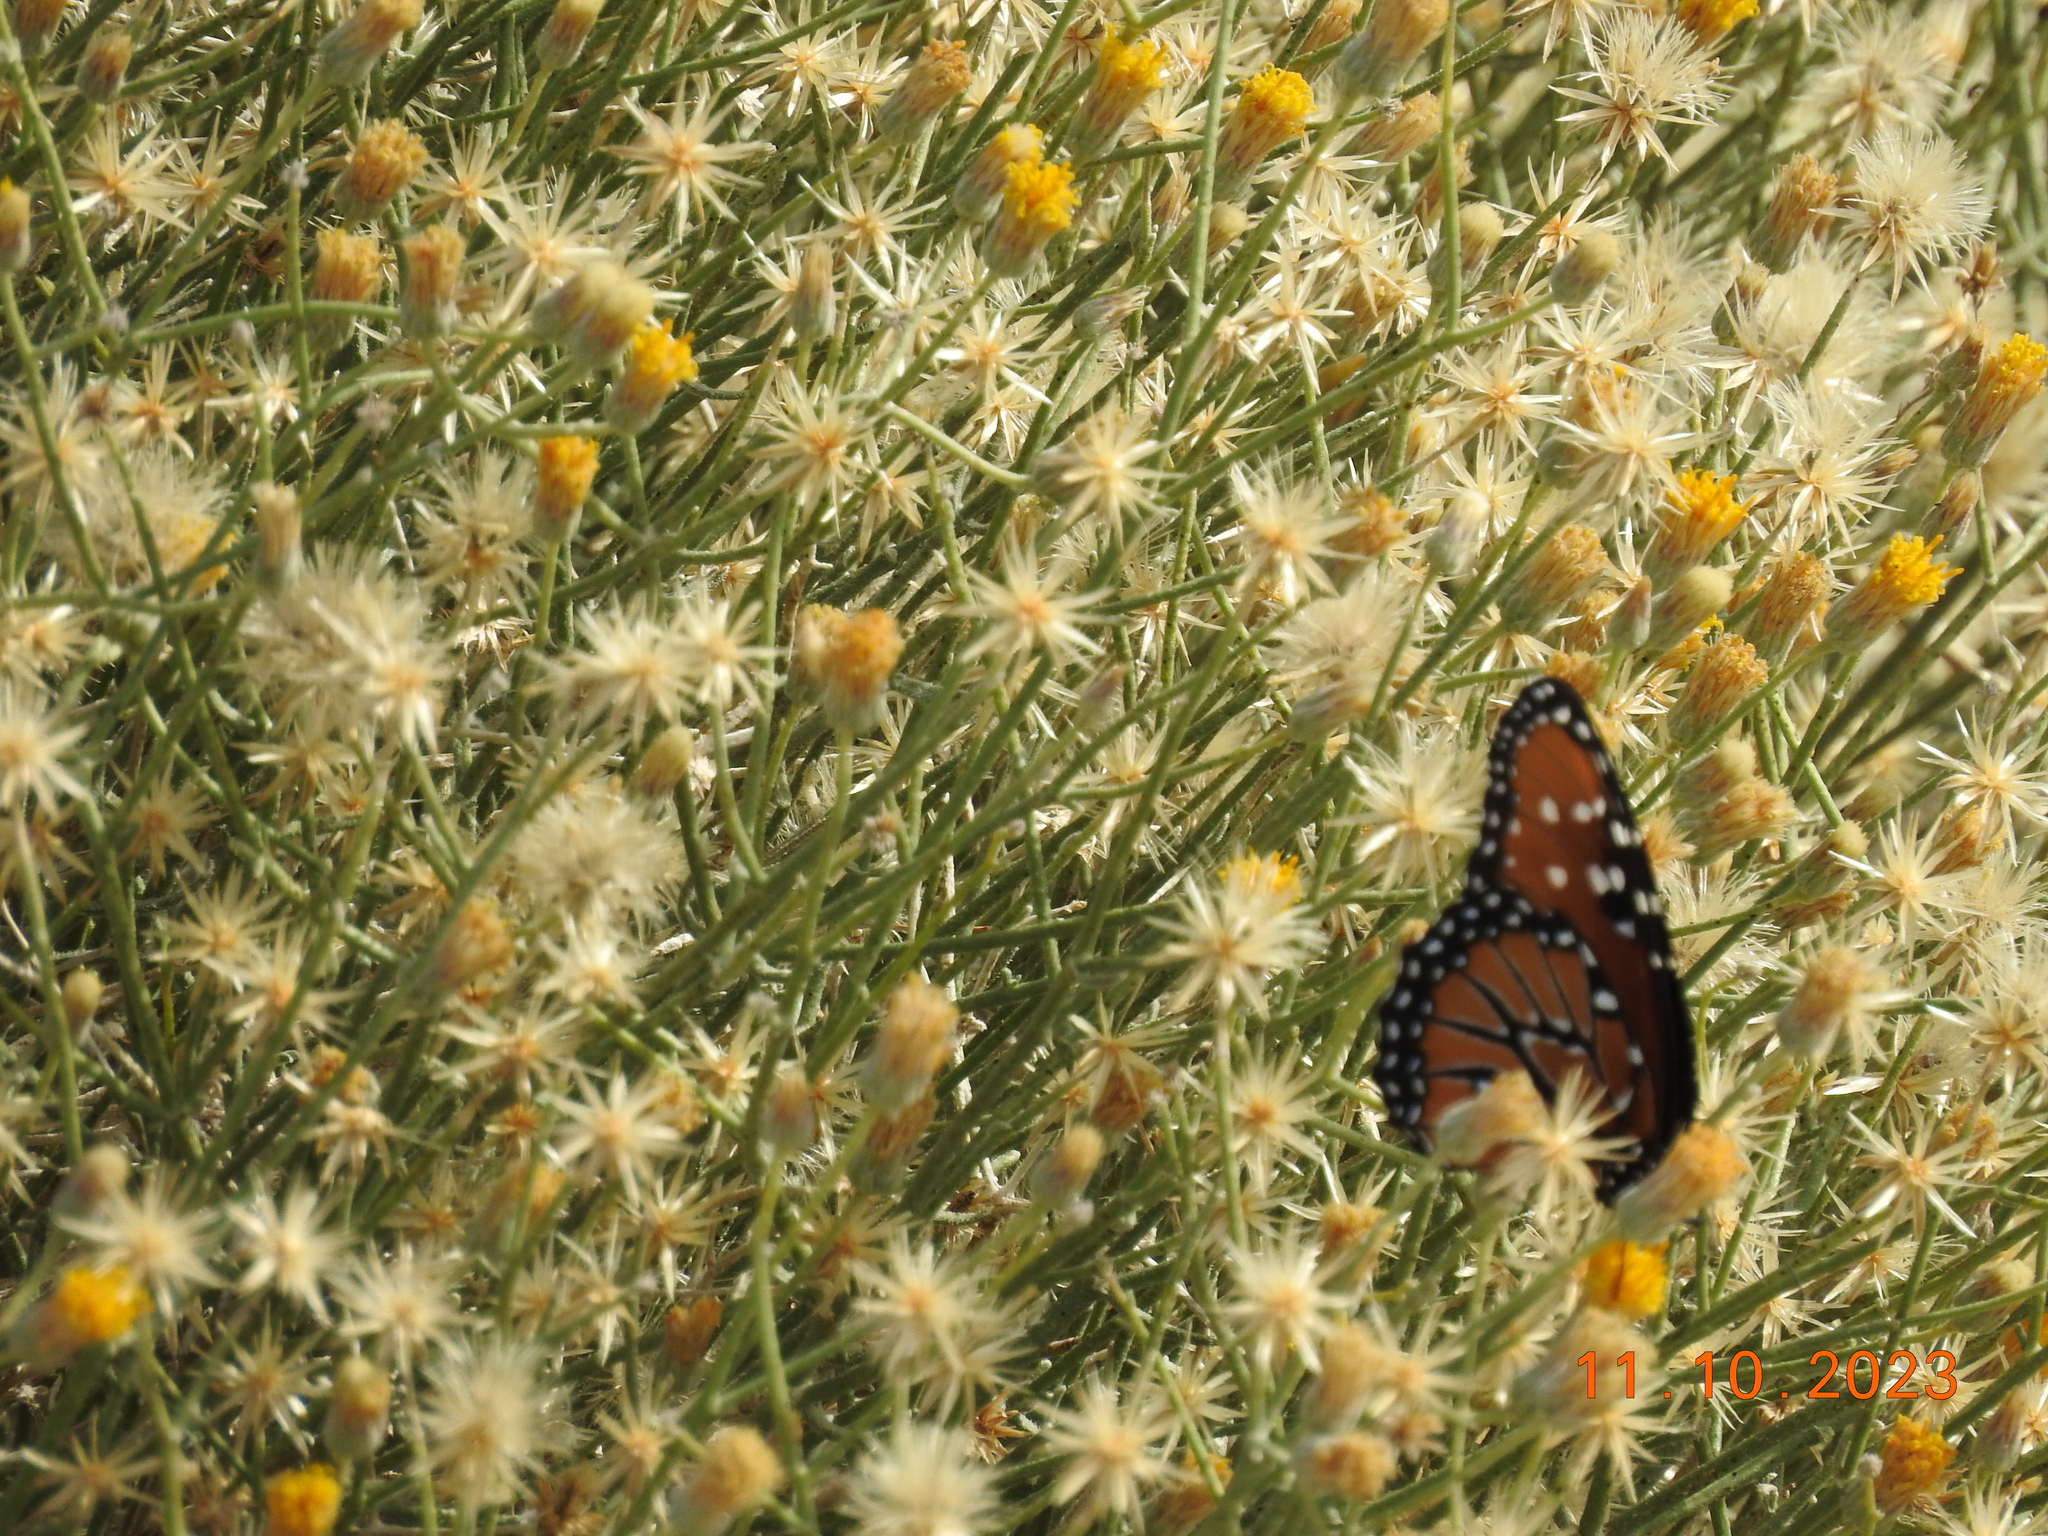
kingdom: Animalia
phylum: Arthropoda
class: Insecta
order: Lepidoptera
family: Nymphalidae
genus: Danaus
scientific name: Danaus gilippus
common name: Queen
